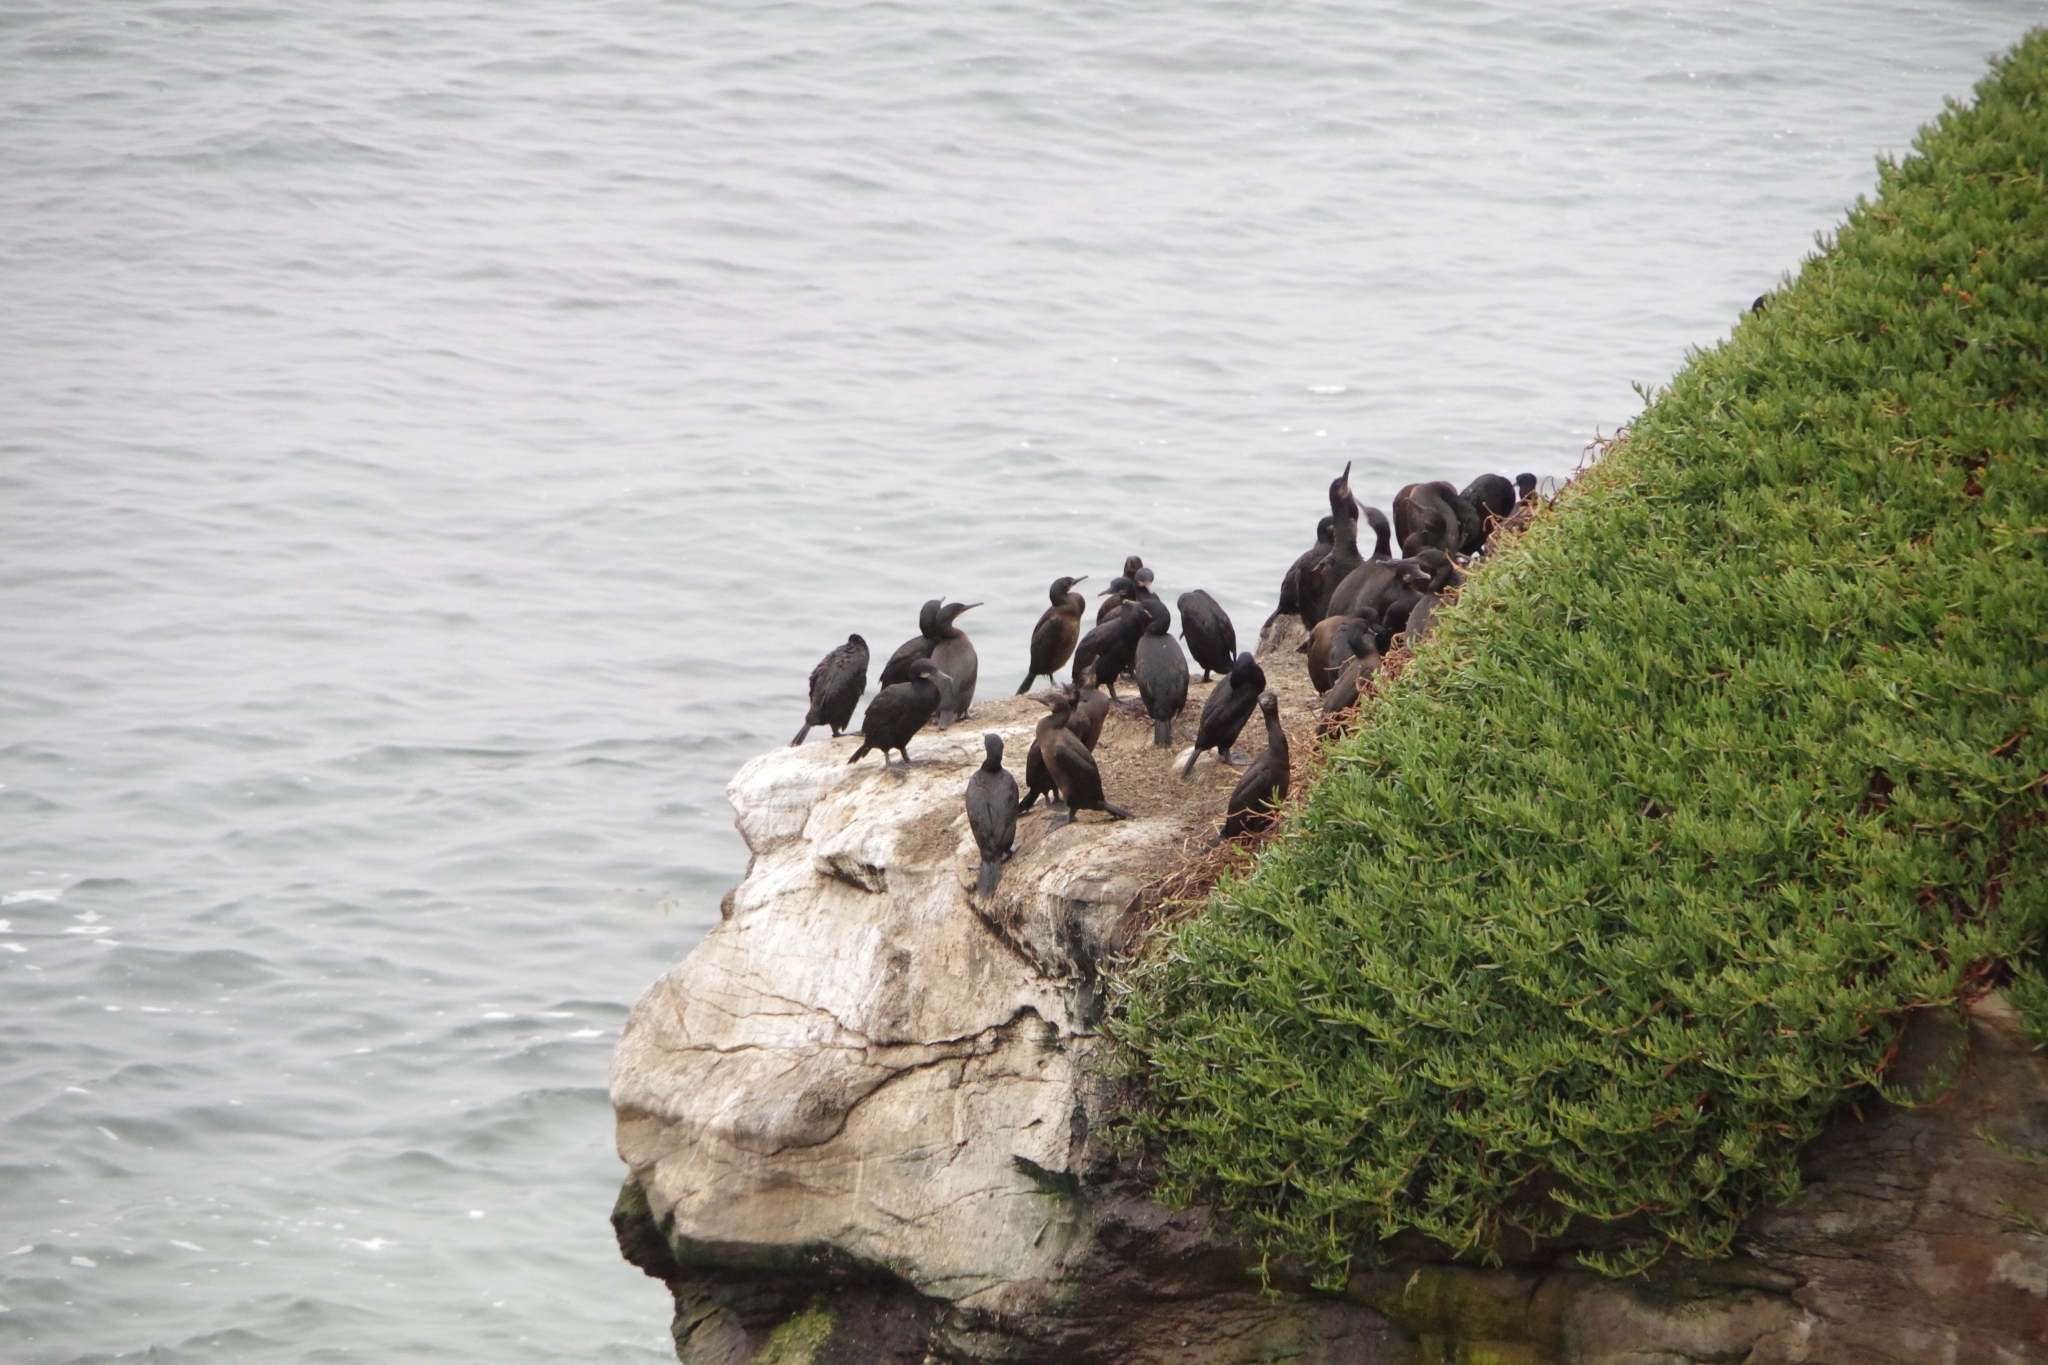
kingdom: Animalia
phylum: Chordata
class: Aves
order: Suliformes
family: Phalacrocoracidae
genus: Urile
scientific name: Urile penicillatus
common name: Brandt's cormorant
